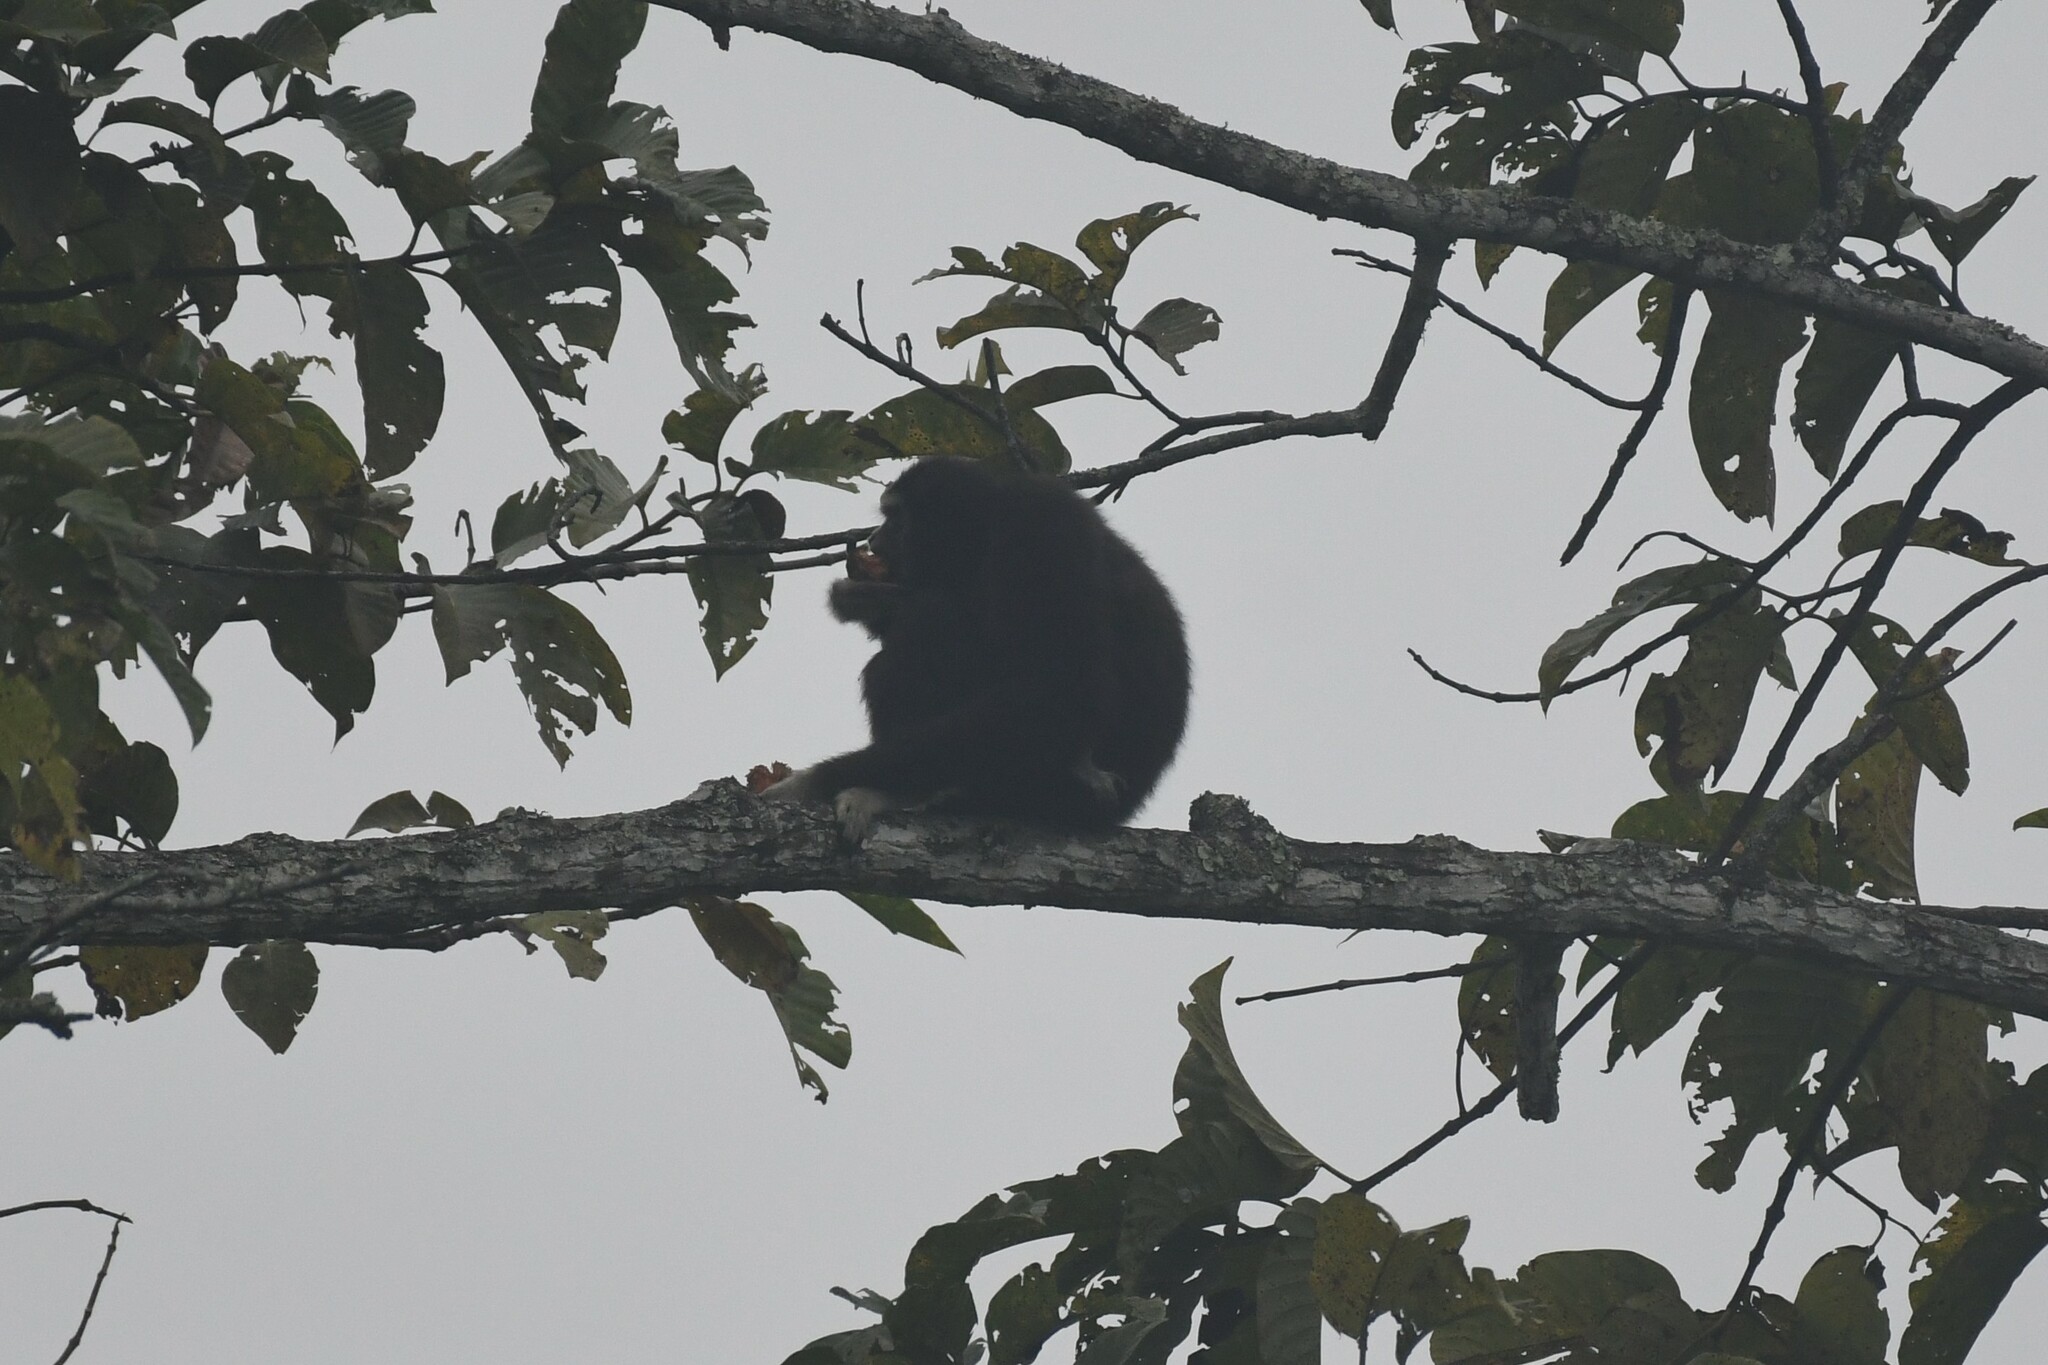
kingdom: Animalia
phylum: Chordata
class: Mammalia
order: Primates
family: Hylobatidae
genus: Hylobates
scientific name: Hylobates lar
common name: Lar gibbon
